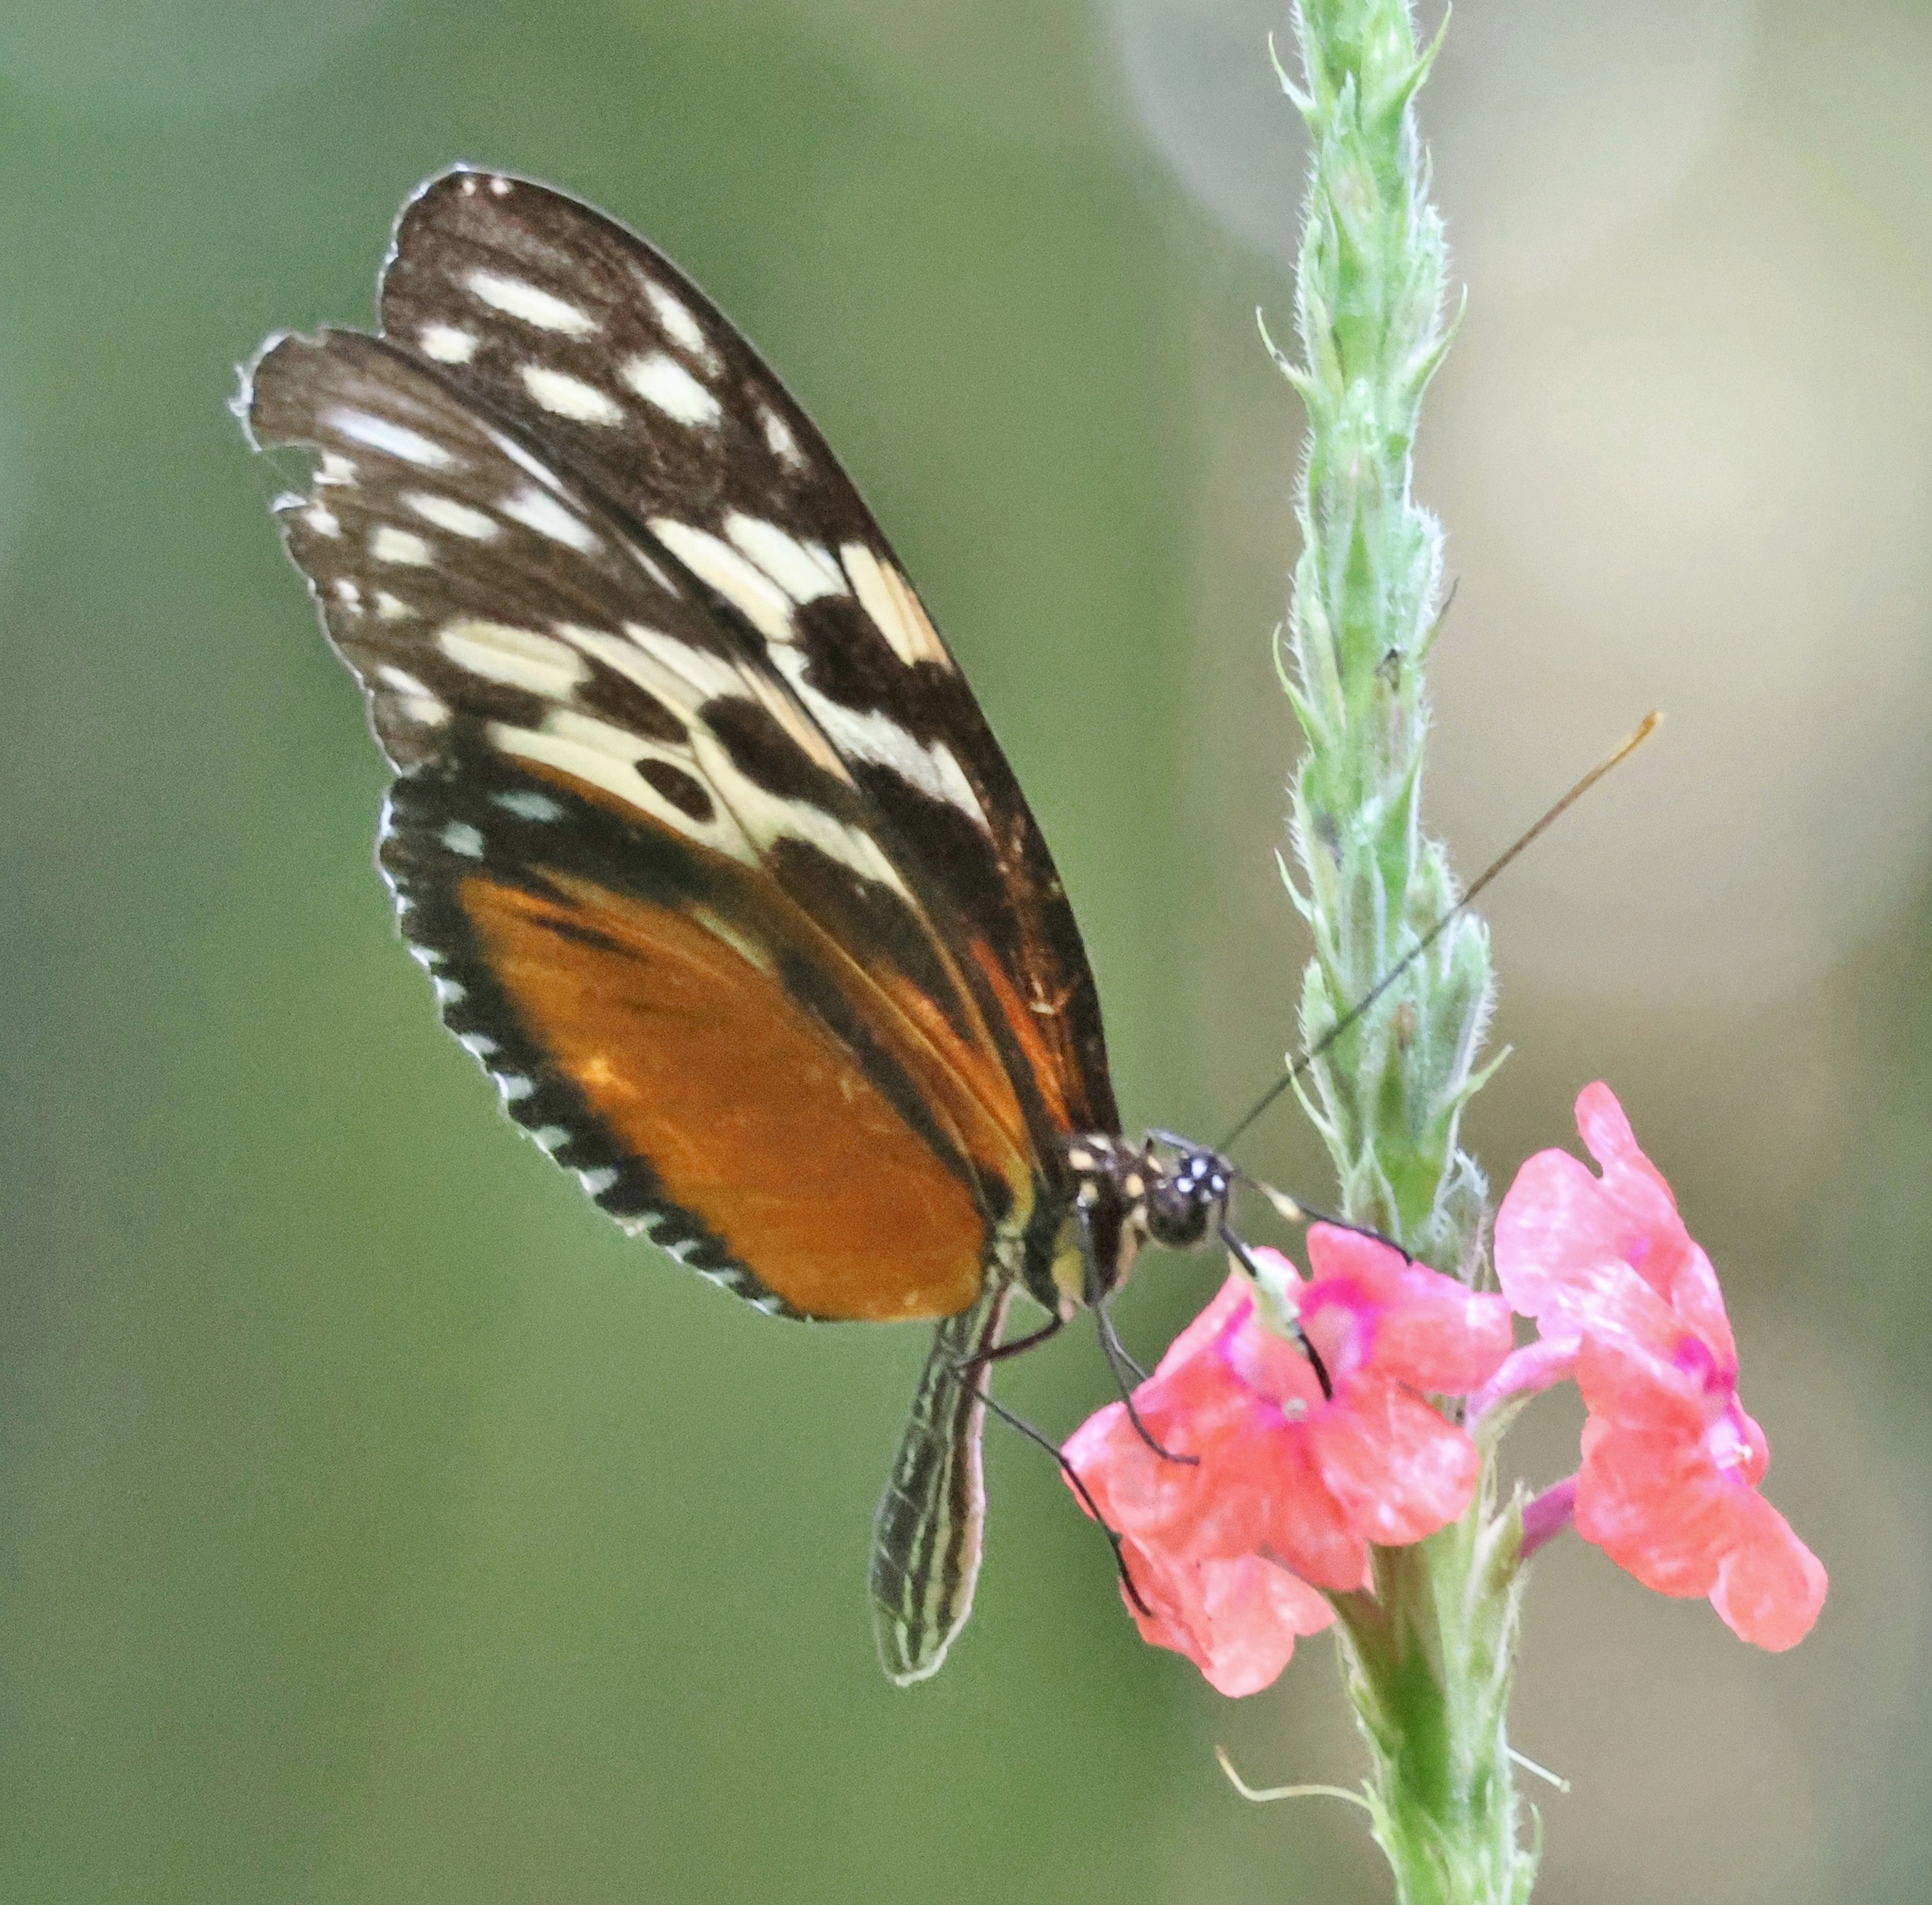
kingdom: Animalia
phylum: Arthropoda
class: Insecta
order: Lepidoptera
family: Nymphalidae
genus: Heliconius
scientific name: Heliconius hecale
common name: Tiger longwing
